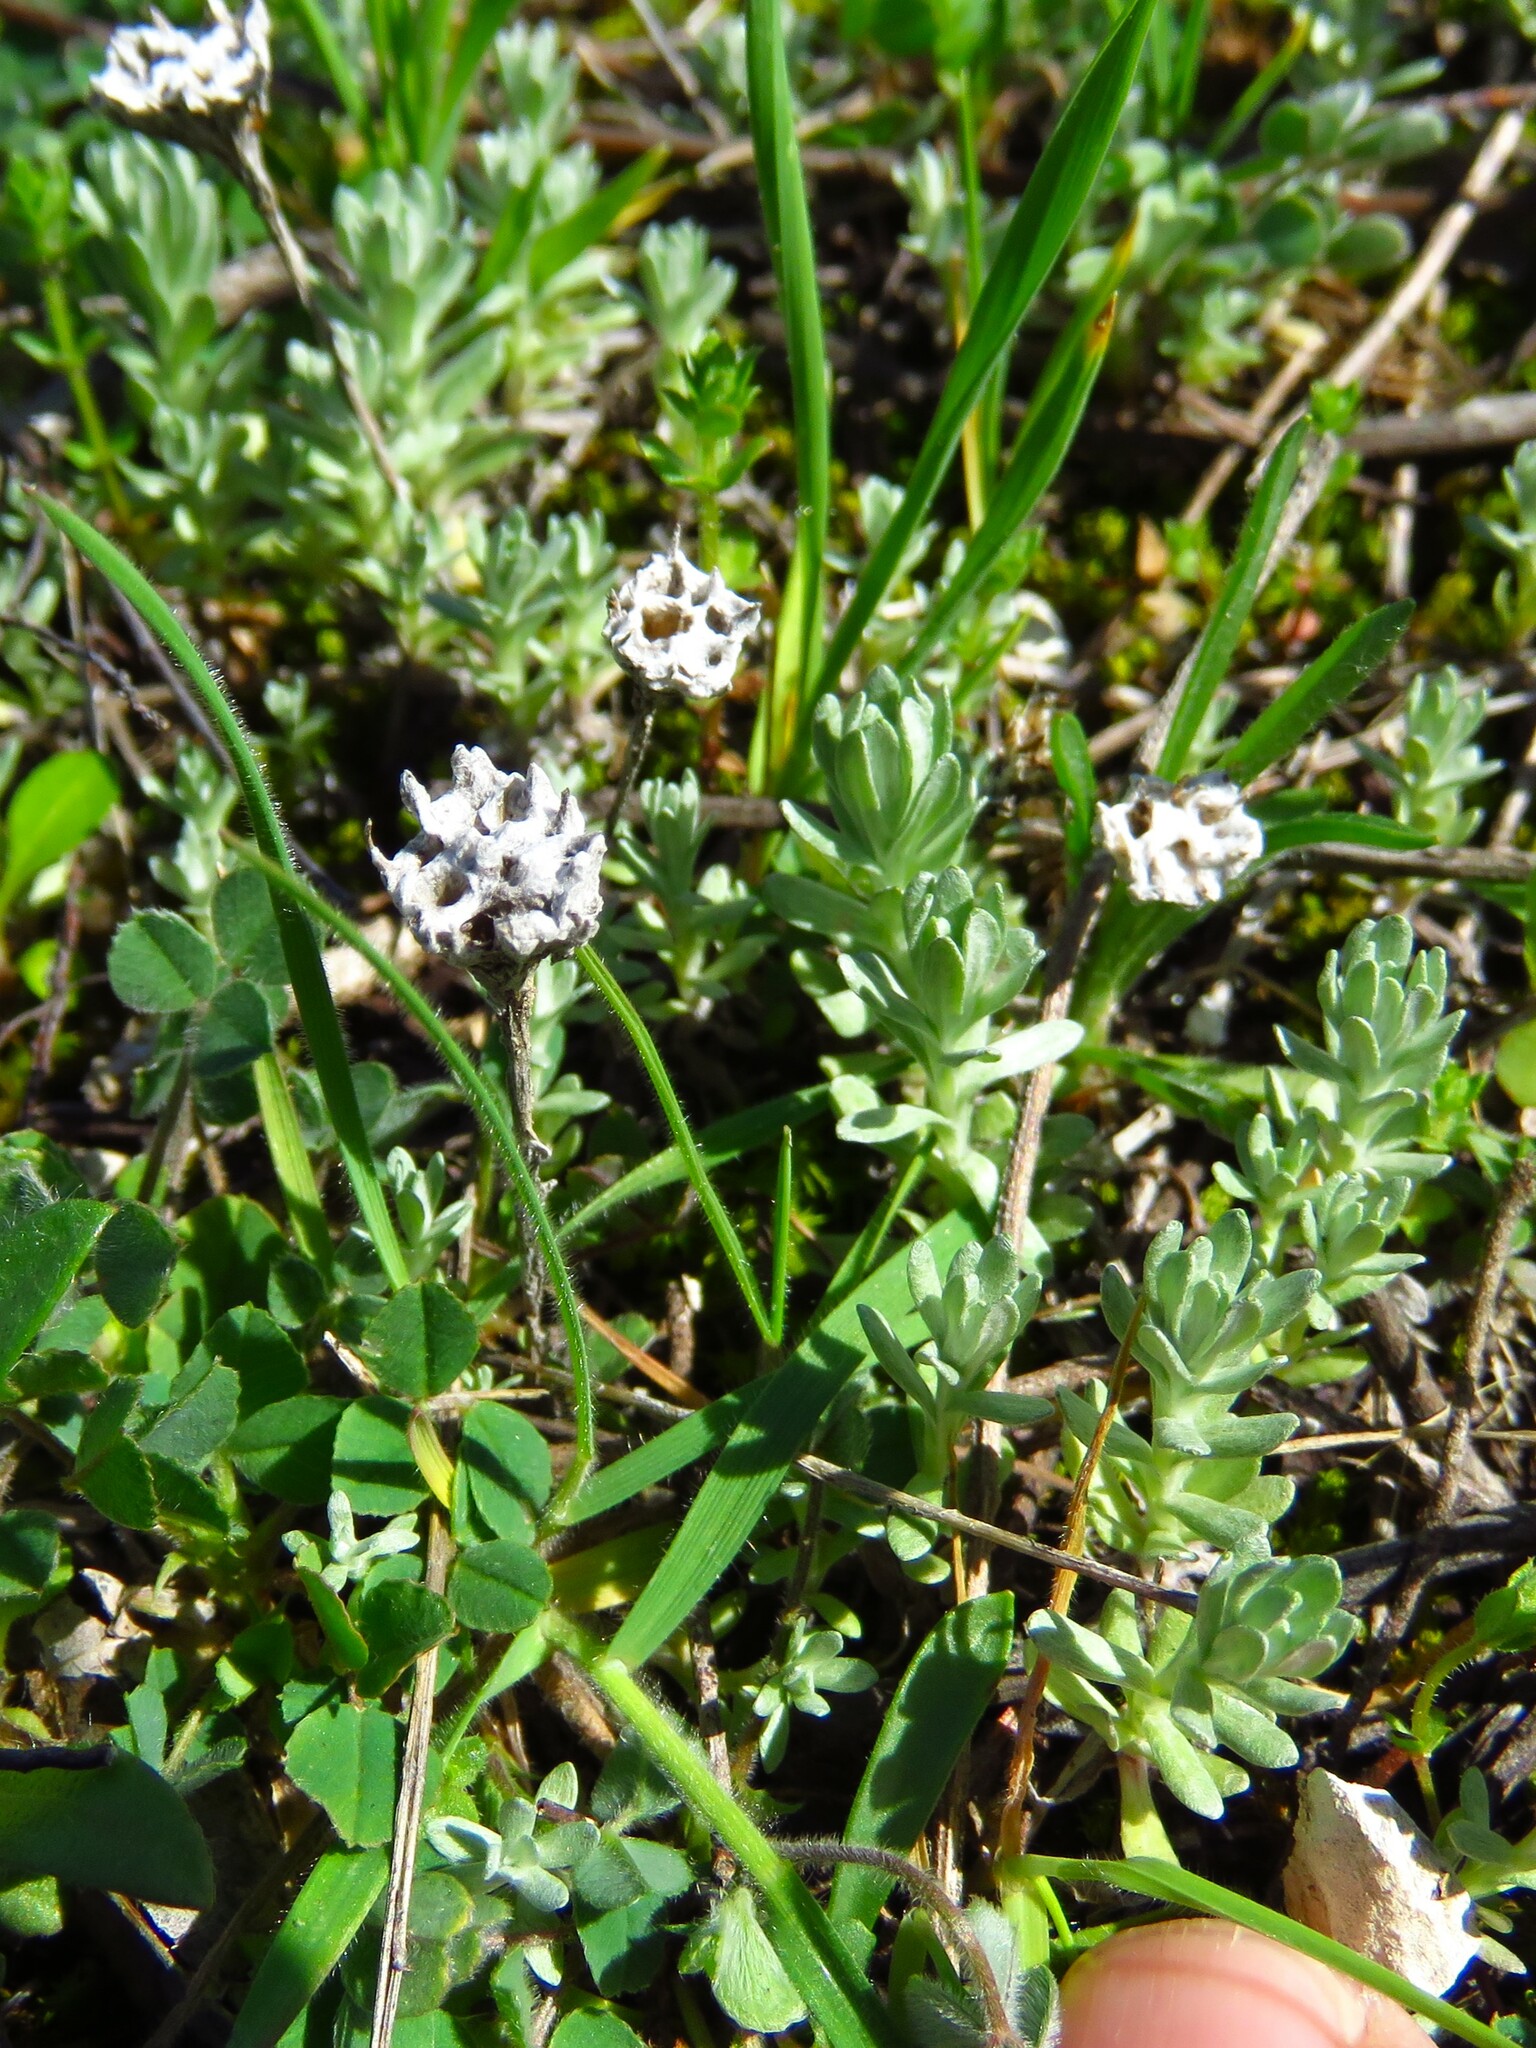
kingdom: Plantae
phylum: Tracheophyta
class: Magnoliopsida
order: Asterales
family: Asteraceae
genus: Diaperia
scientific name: Diaperia prolifera
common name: Big-head rabbit-tobacco
